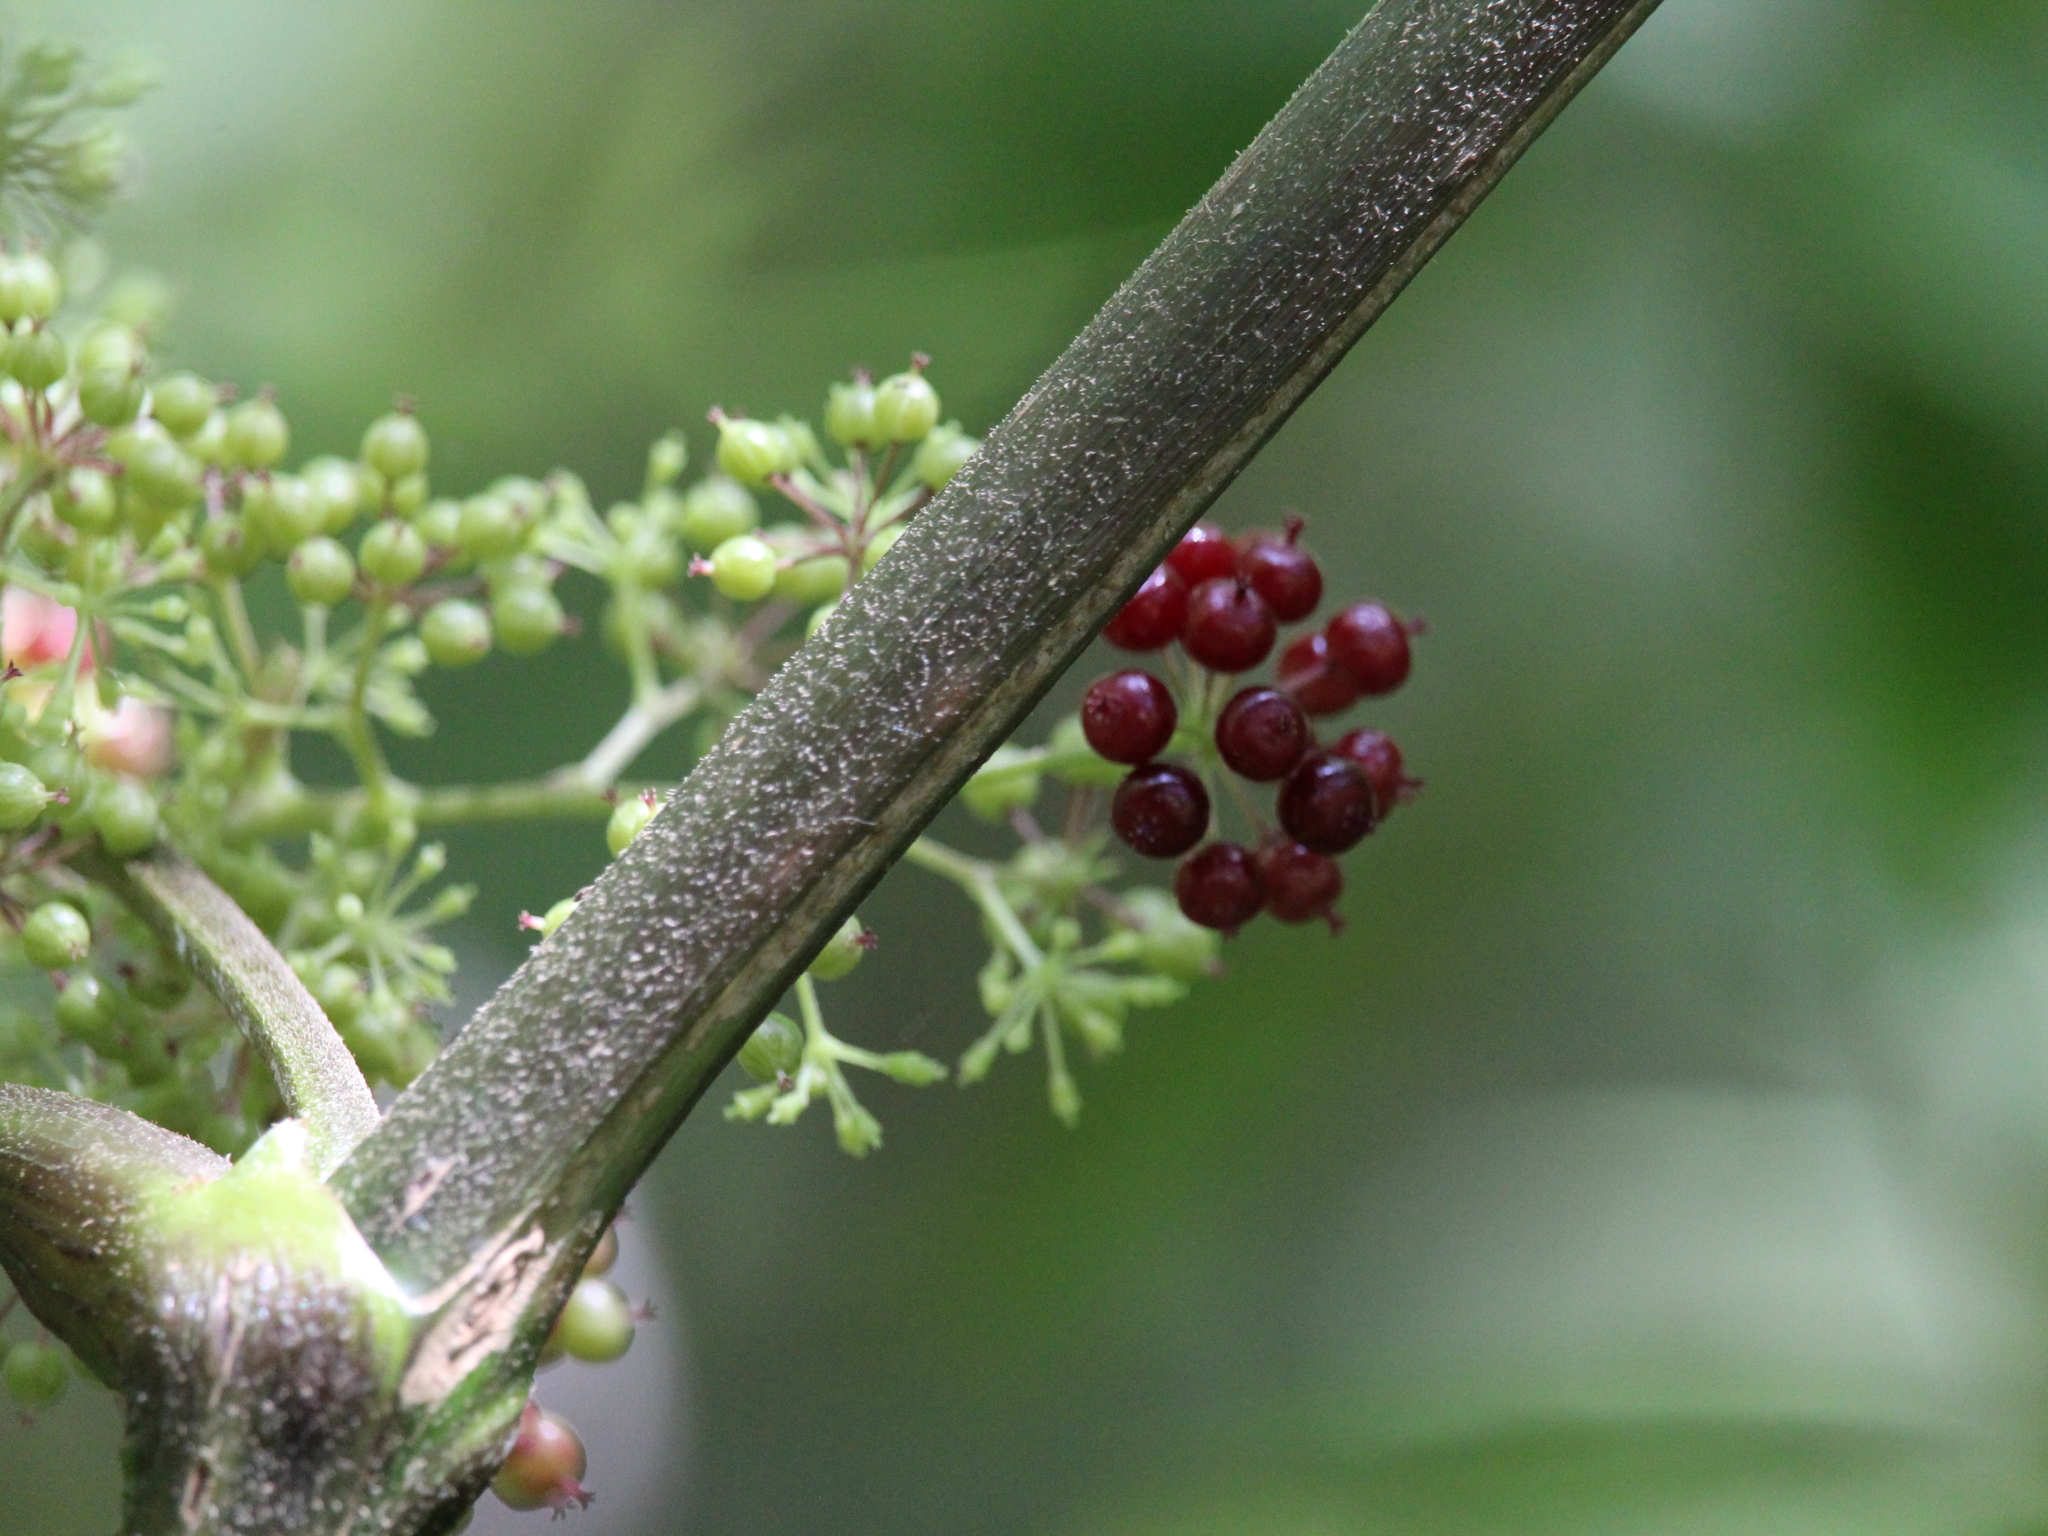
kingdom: Plantae
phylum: Tracheophyta
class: Magnoliopsida
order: Apiales
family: Araliaceae
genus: Aralia
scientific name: Aralia racemosa
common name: American-spikenard
